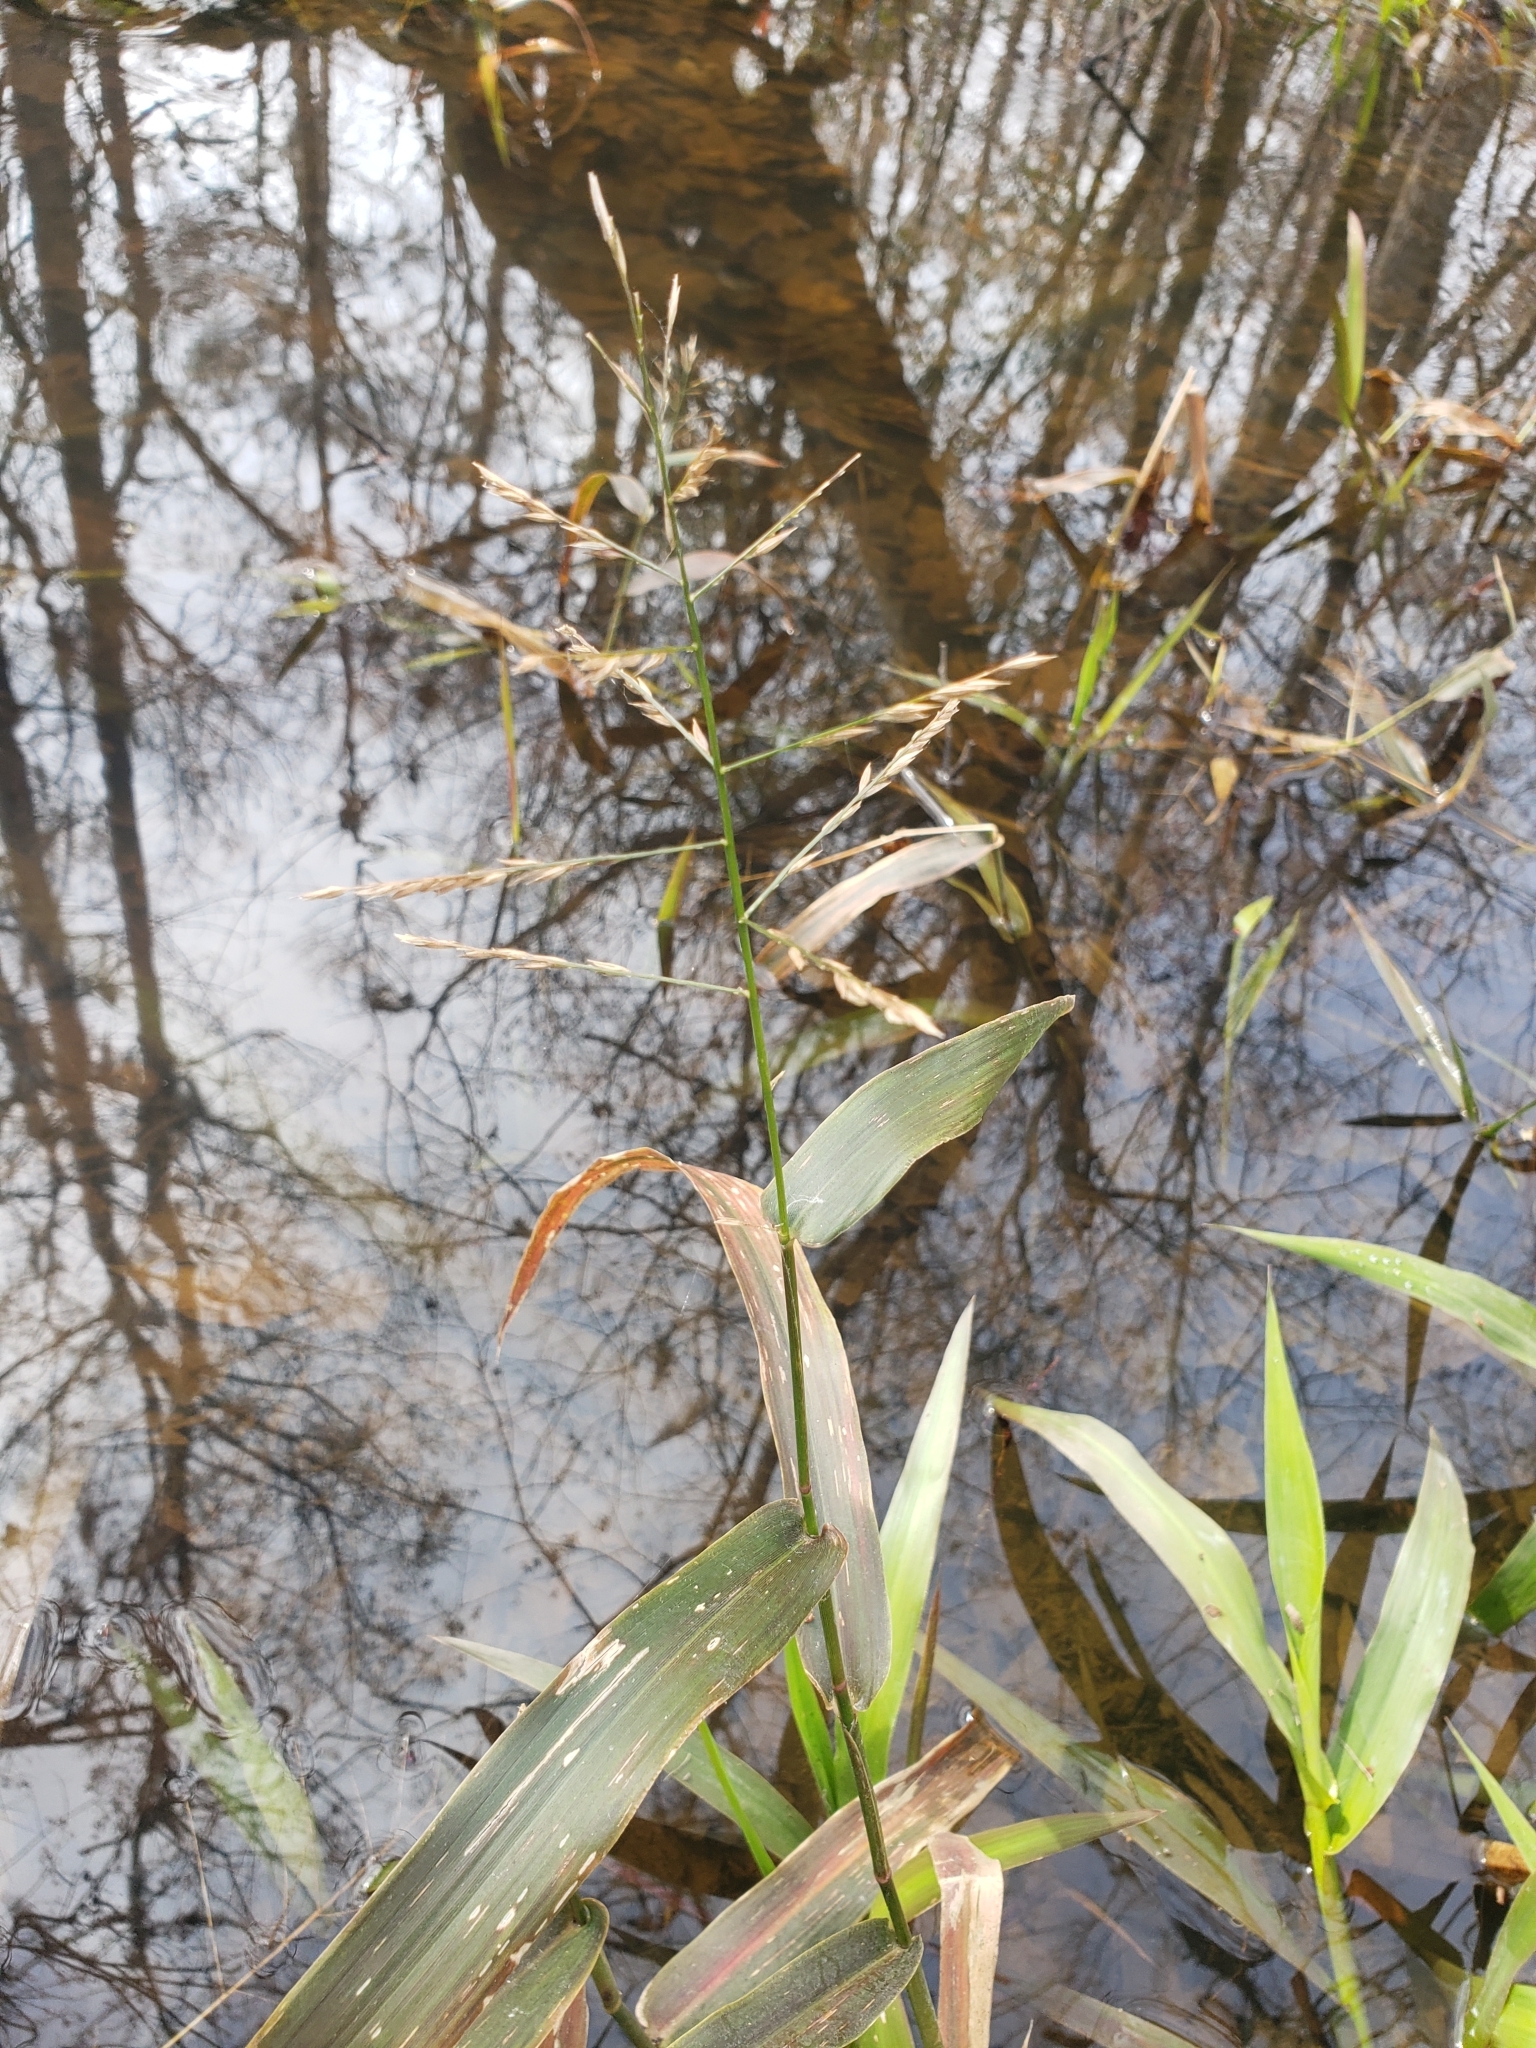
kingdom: Plantae
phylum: Tracheophyta
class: Liliopsida
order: Poales
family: Poaceae
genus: Panicum
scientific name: Panicum gymnocarpon
